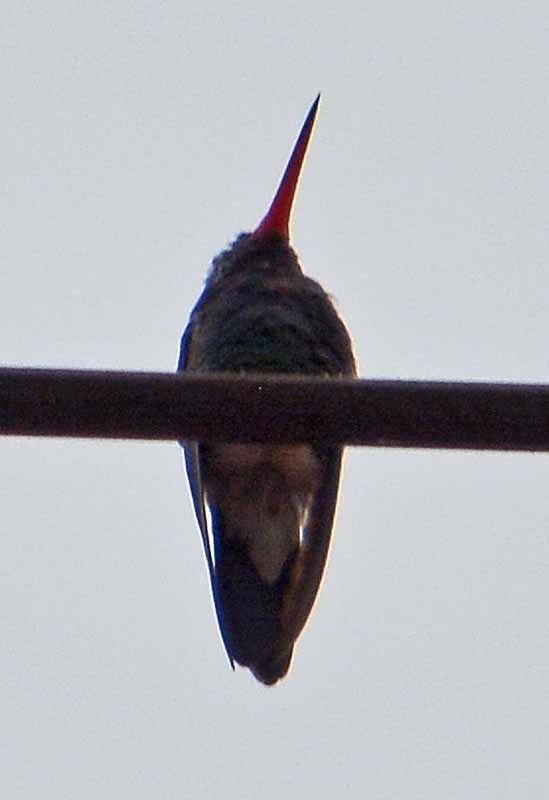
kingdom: Animalia
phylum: Chordata
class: Aves
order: Apodiformes
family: Trochilidae
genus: Cynanthus
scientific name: Cynanthus latirostris
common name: Broad-billed hummingbird
